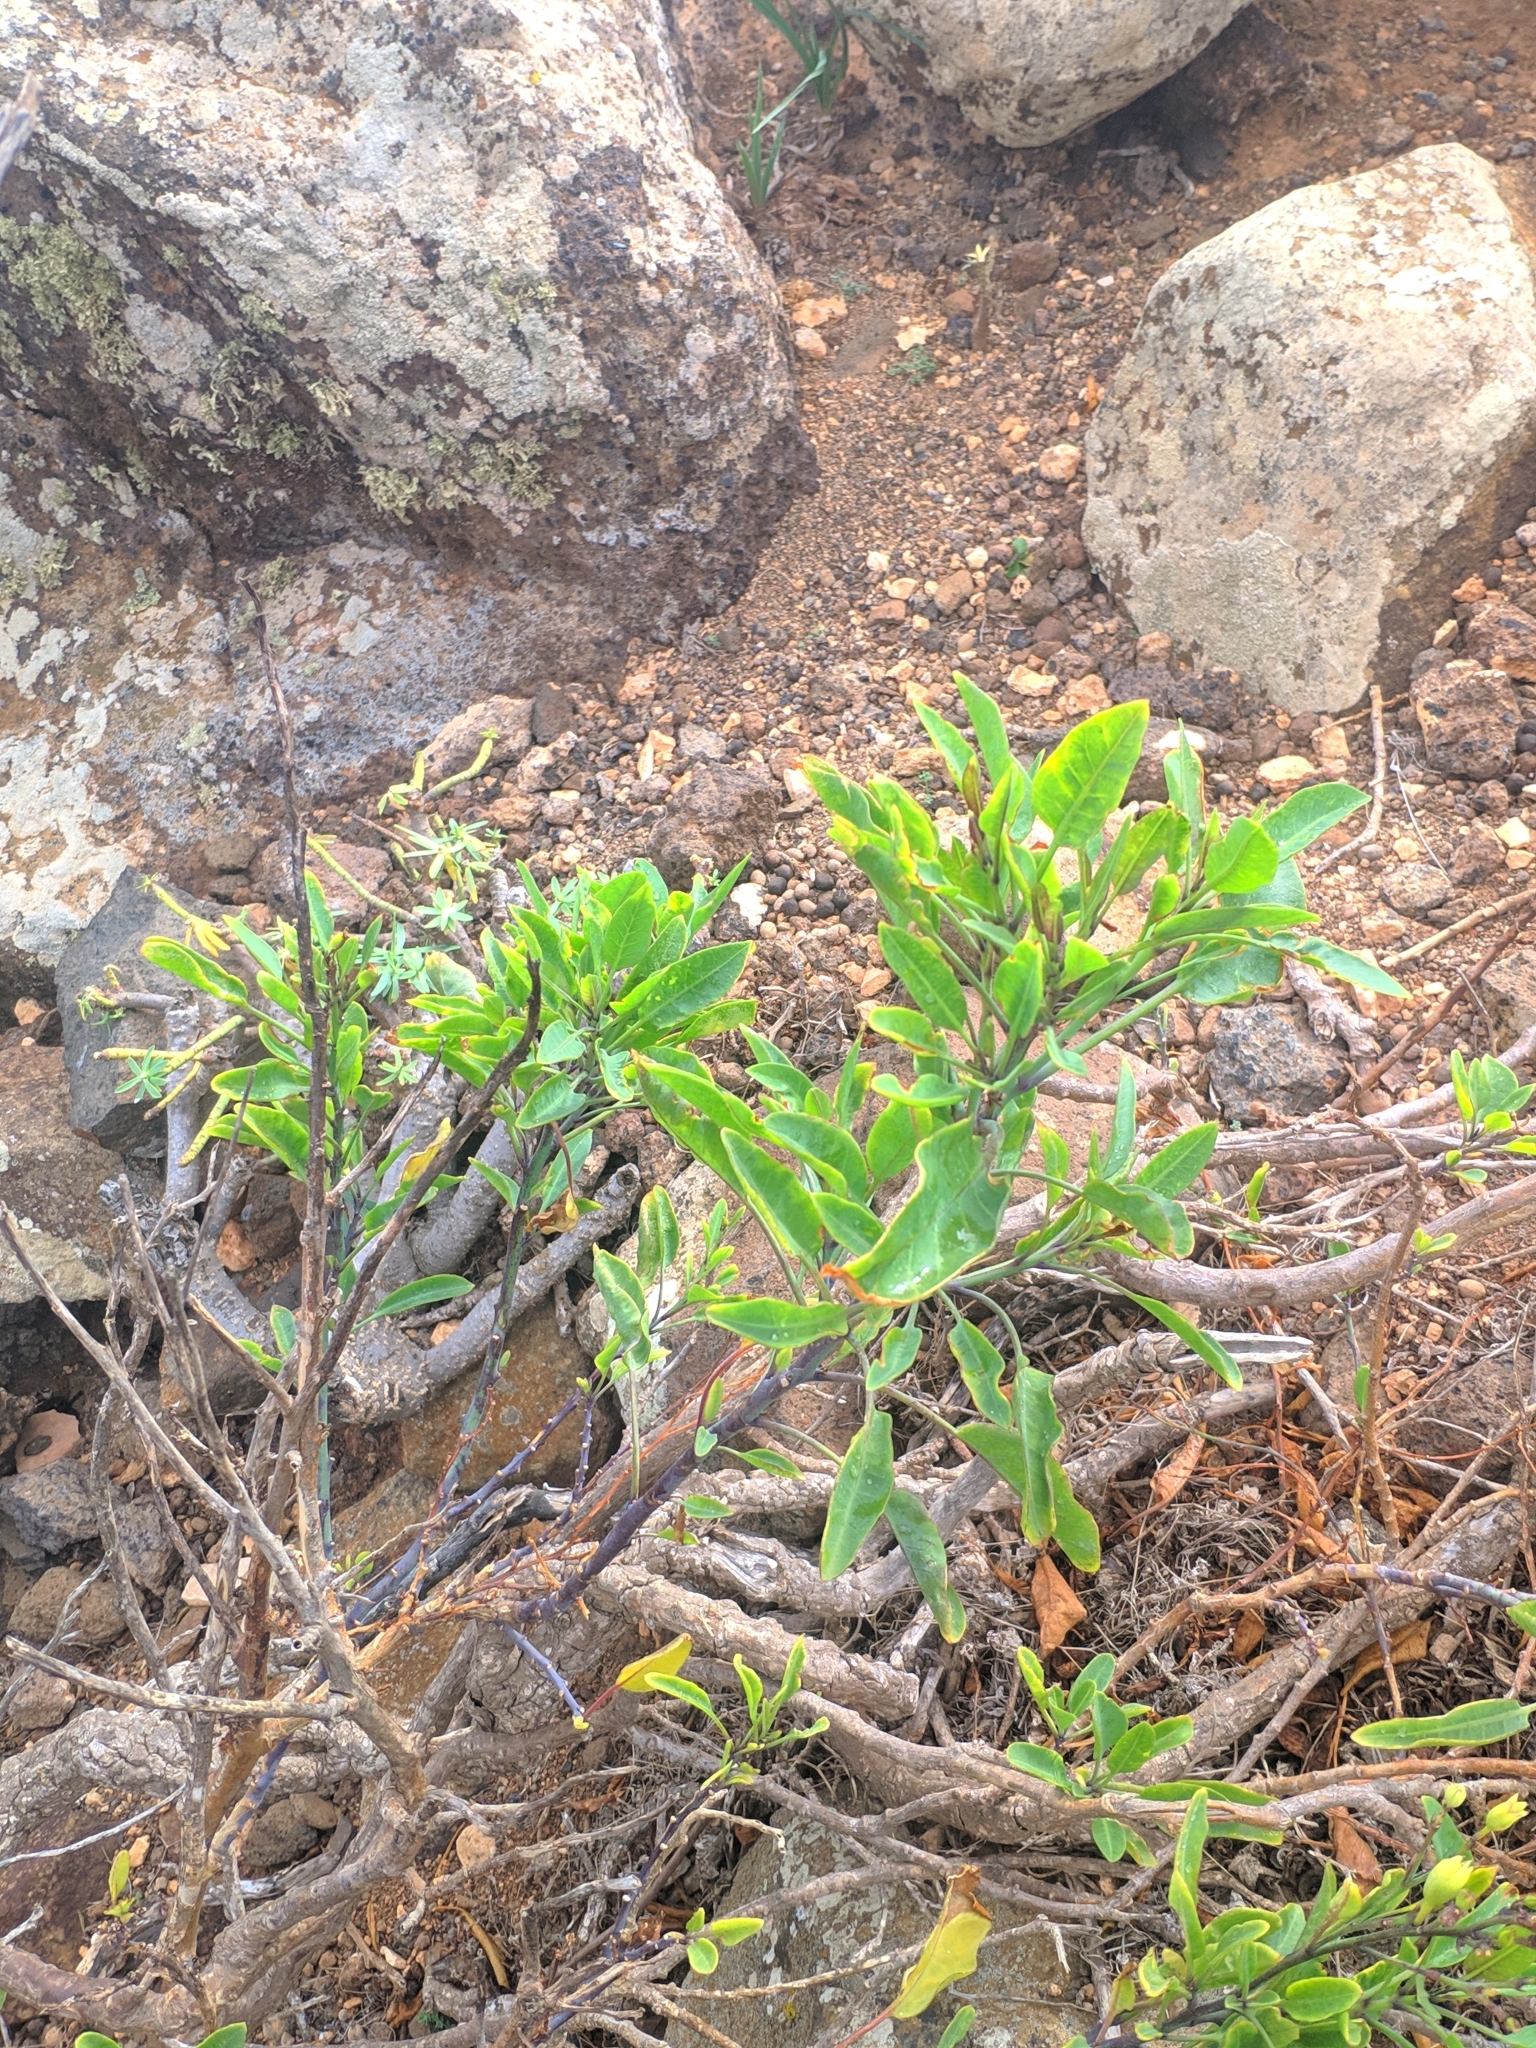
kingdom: Plantae
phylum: Tracheophyta
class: Magnoliopsida
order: Solanales
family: Solanaceae
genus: Nicotiana
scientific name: Nicotiana glauca
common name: Tree tobacco
